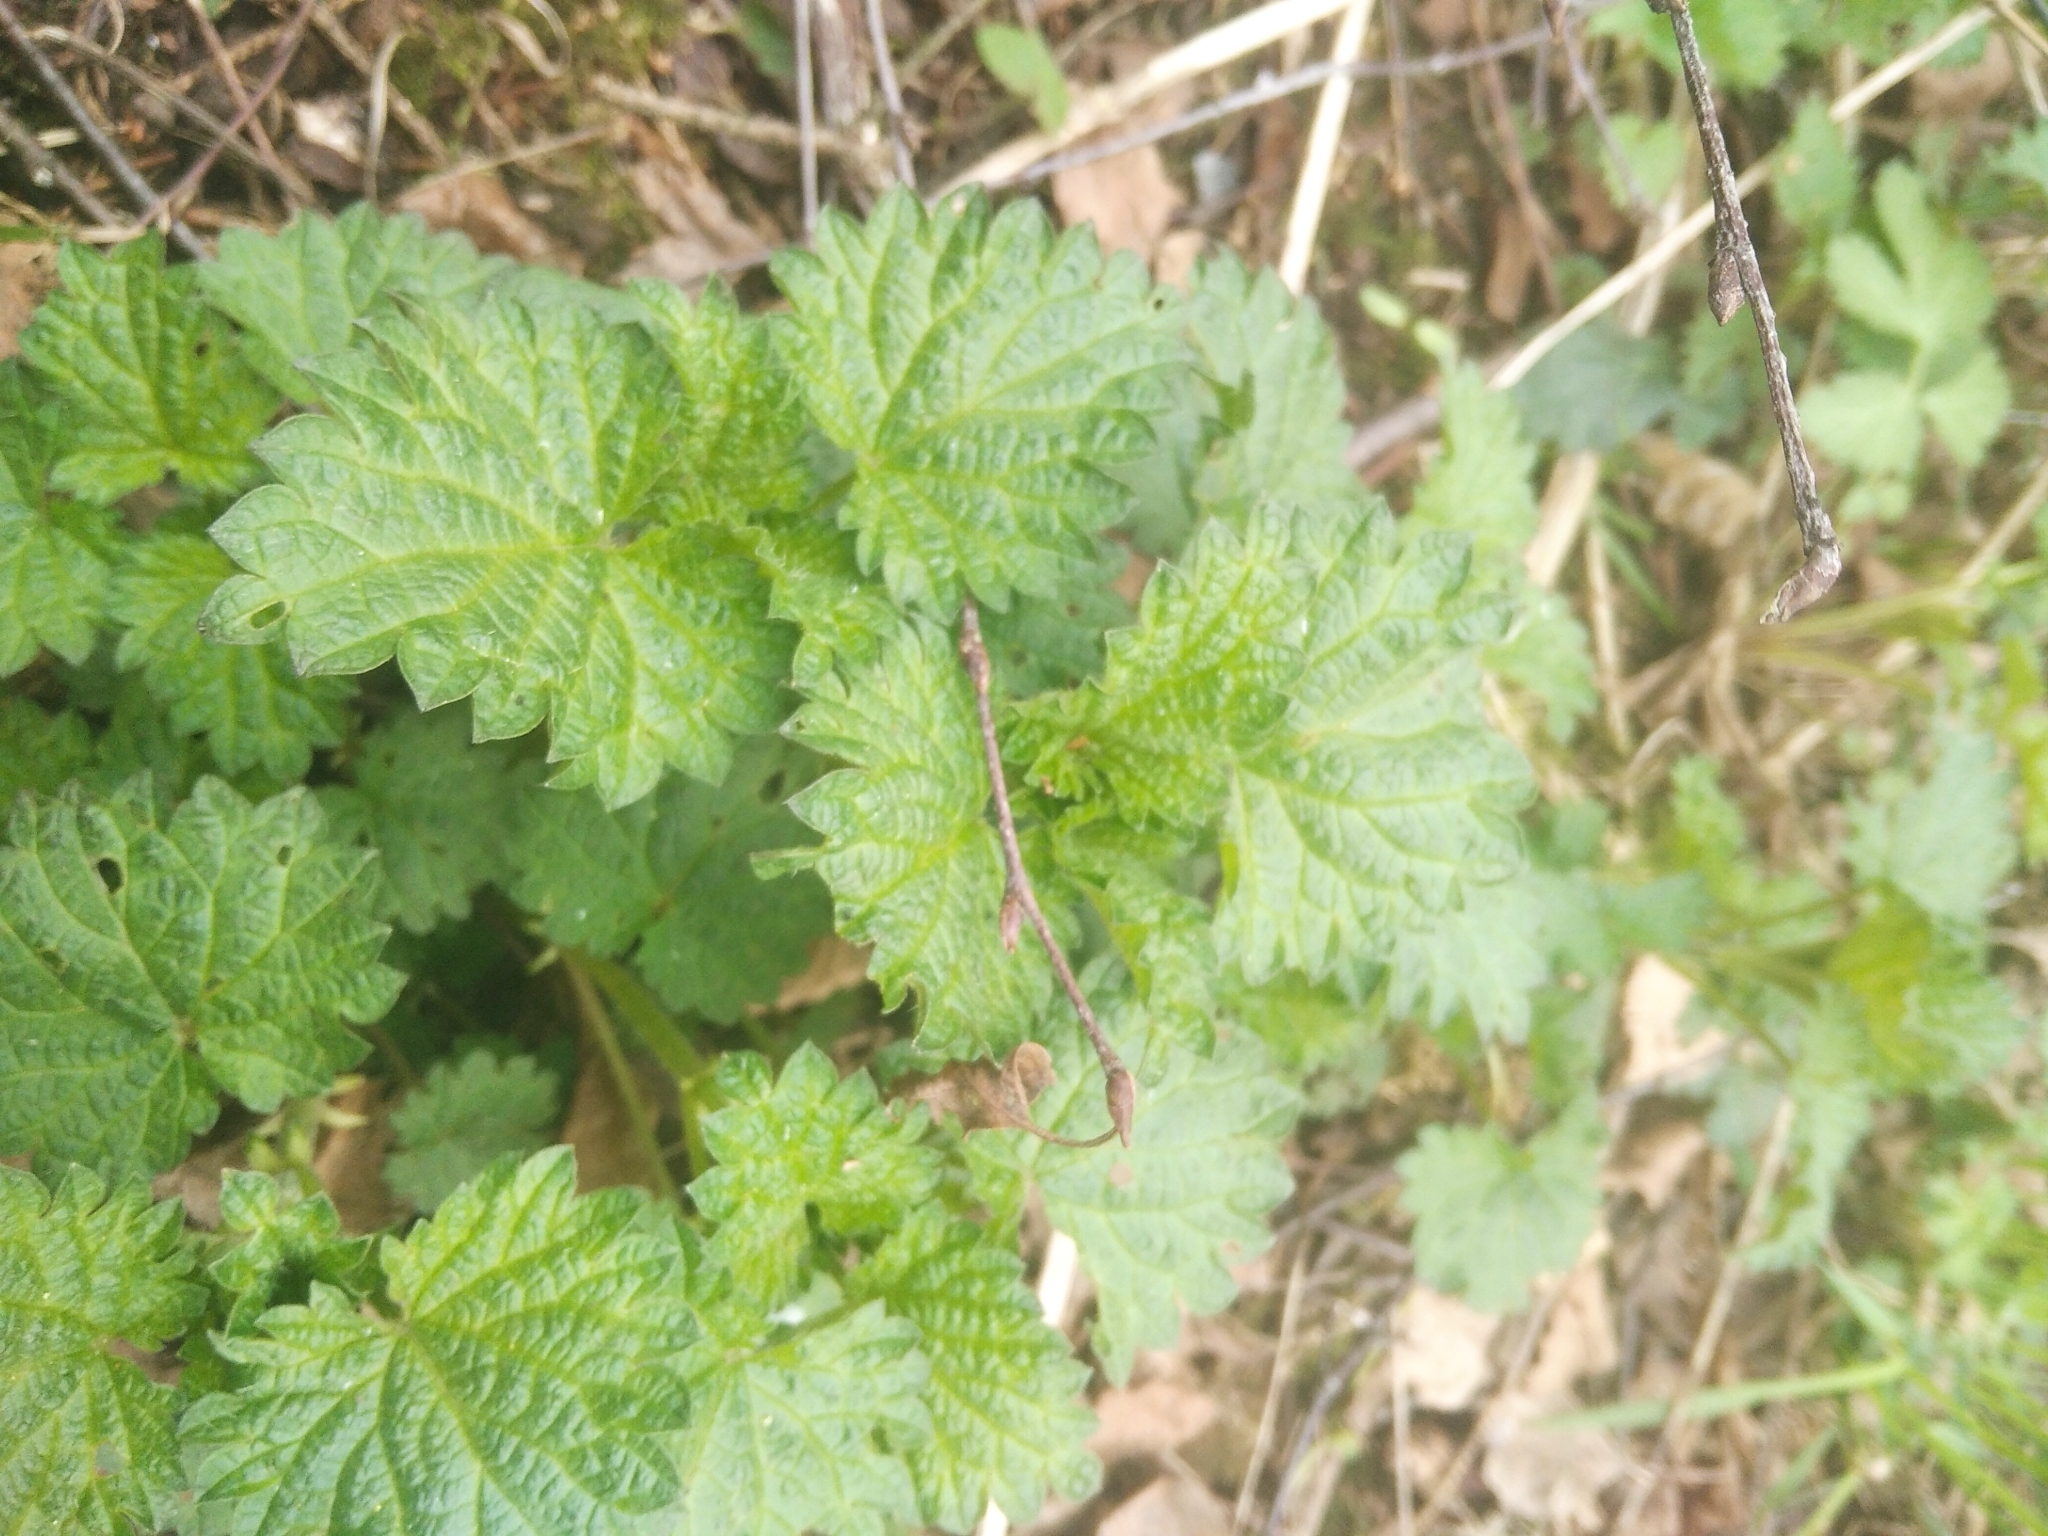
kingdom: Plantae
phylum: Tracheophyta
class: Magnoliopsida
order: Rosales
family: Urticaceae
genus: Urtica
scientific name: Urtica dioica
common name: Common nettle
